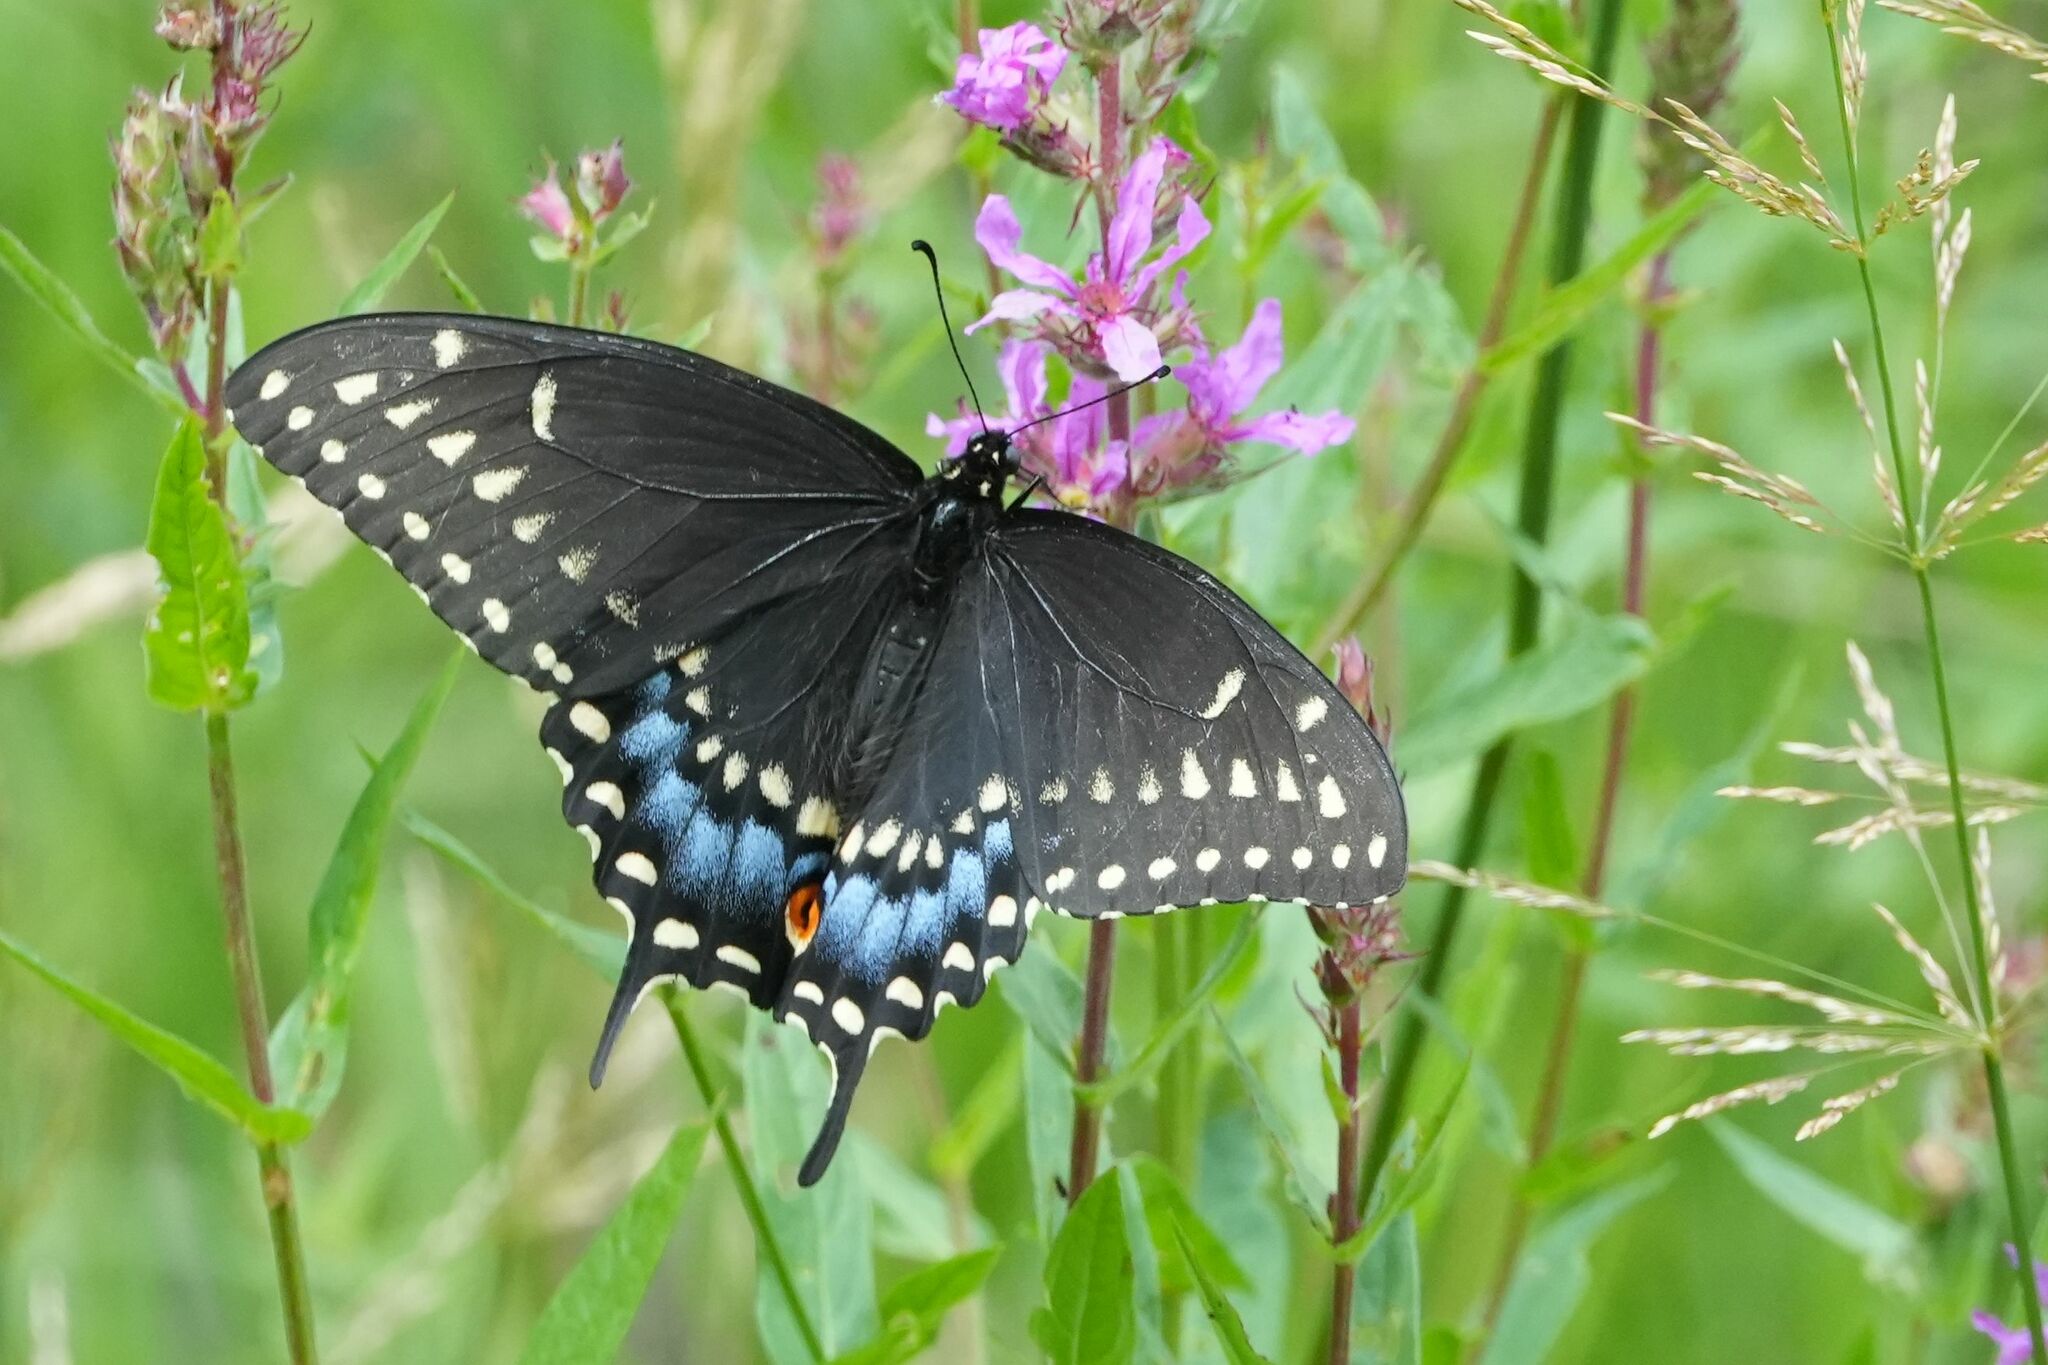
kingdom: Animalia
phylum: Arthropoda
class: Insecta
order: Lepidoptera
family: Papilionidae
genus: Papilio
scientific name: Papilio polyxenes
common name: Black swallowtail
